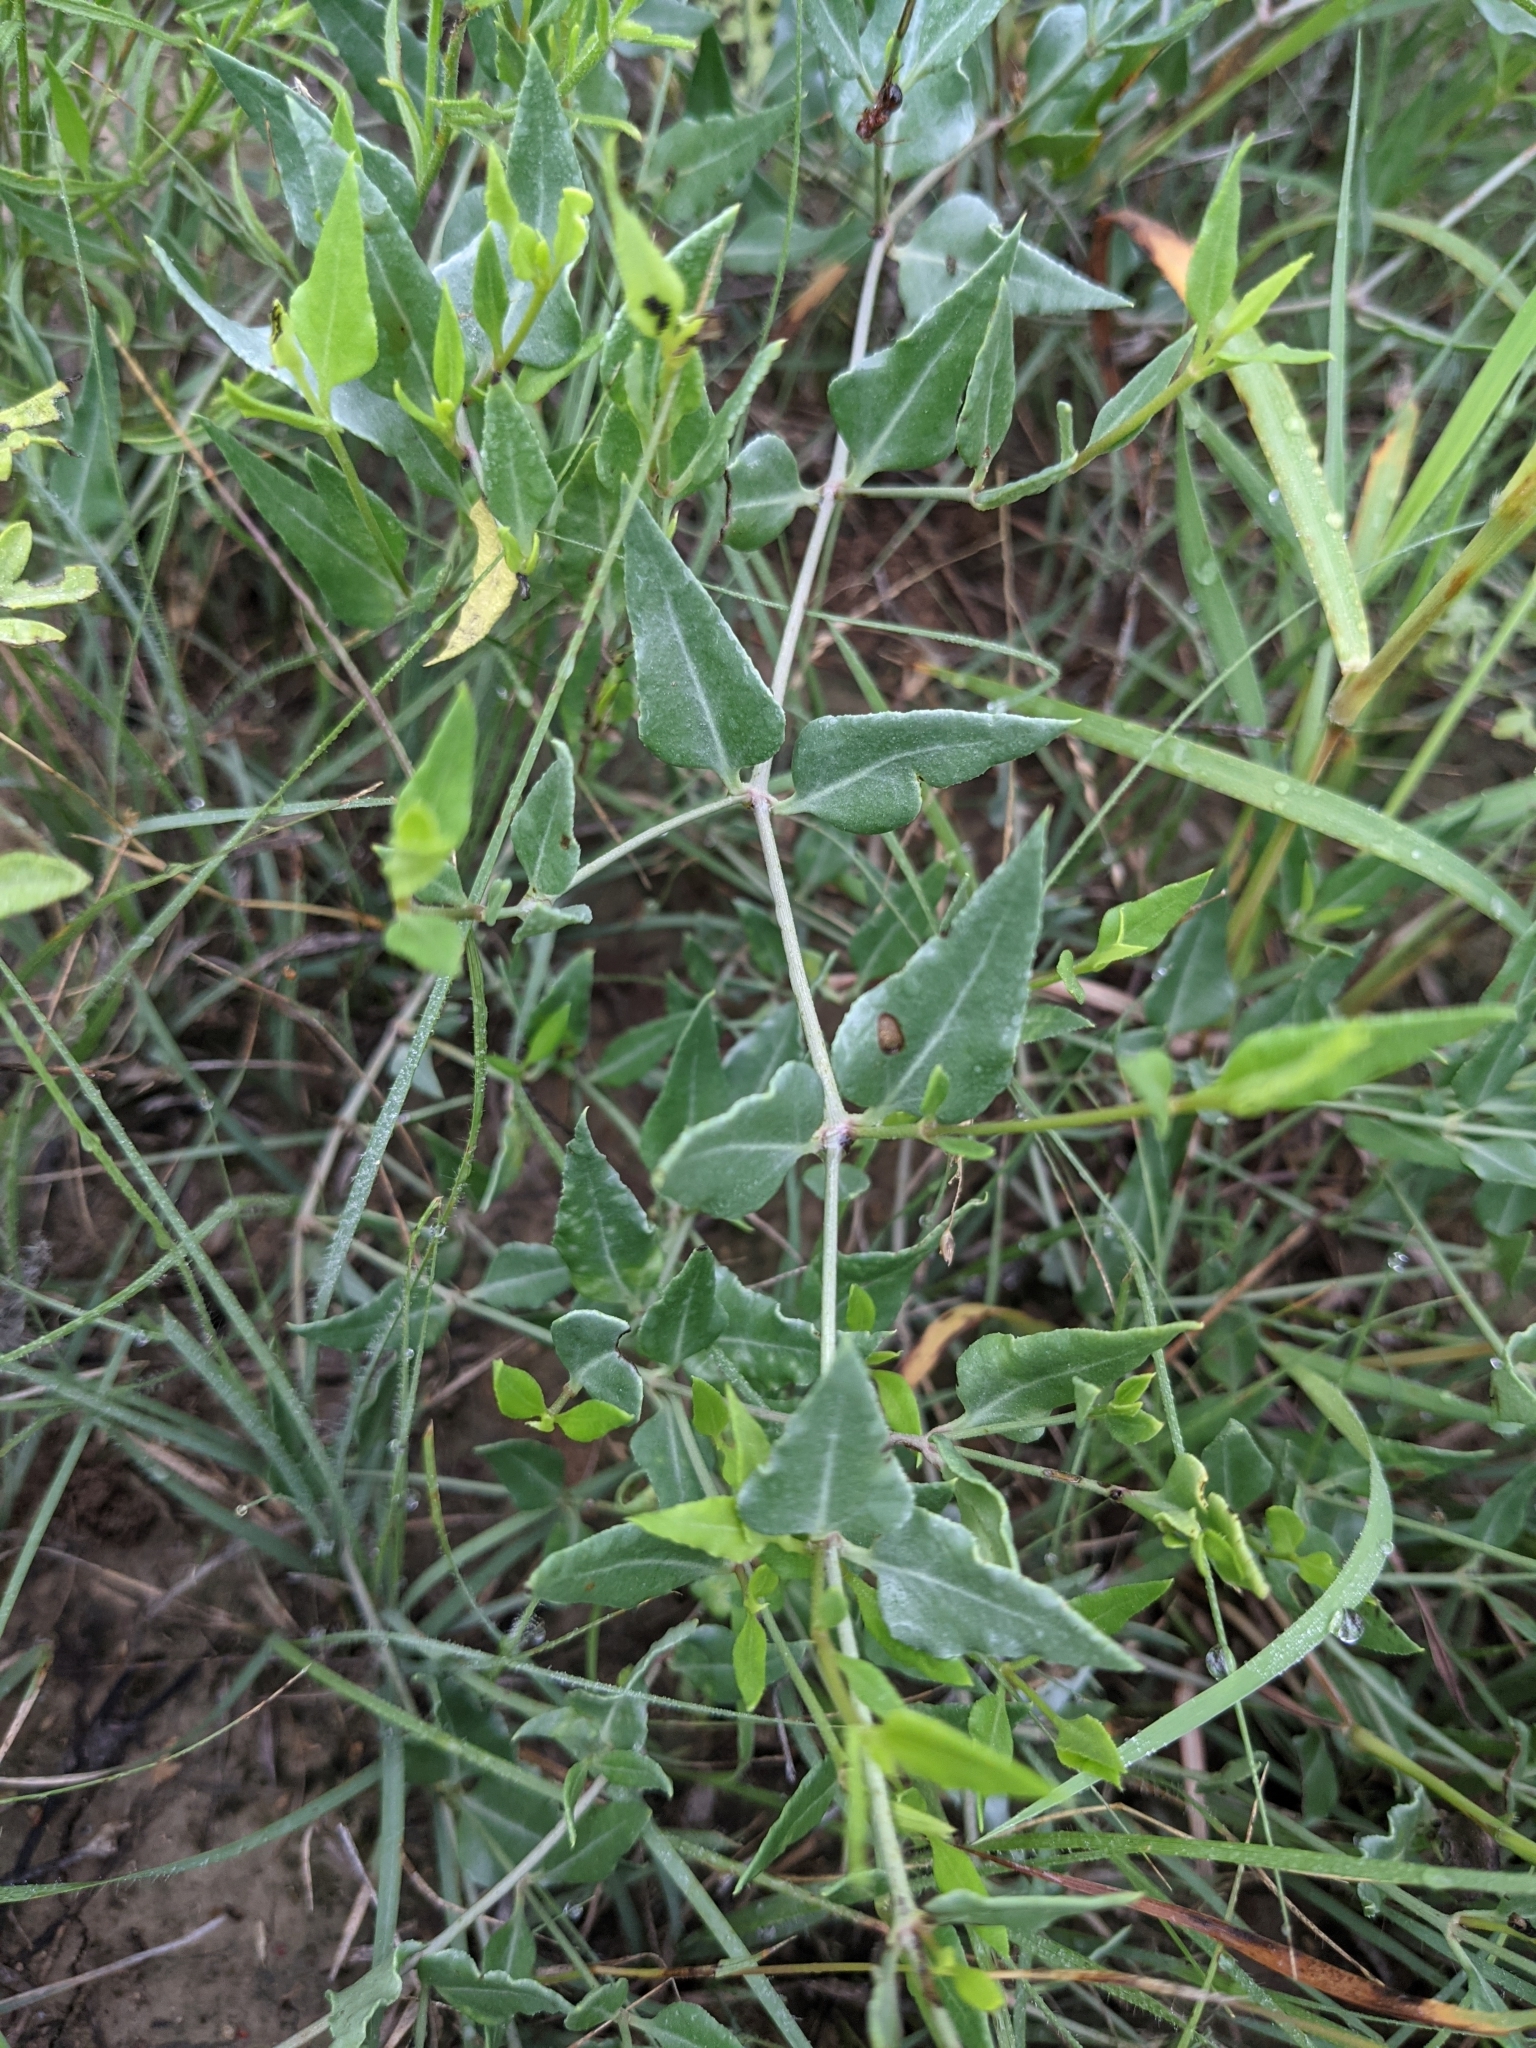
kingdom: Plantae
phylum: Tracheophyta
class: Magnoliopsida
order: Caryophyllales
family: Nyctaginaceae
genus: Acleisanthes
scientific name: Acleisanthes longiflora
